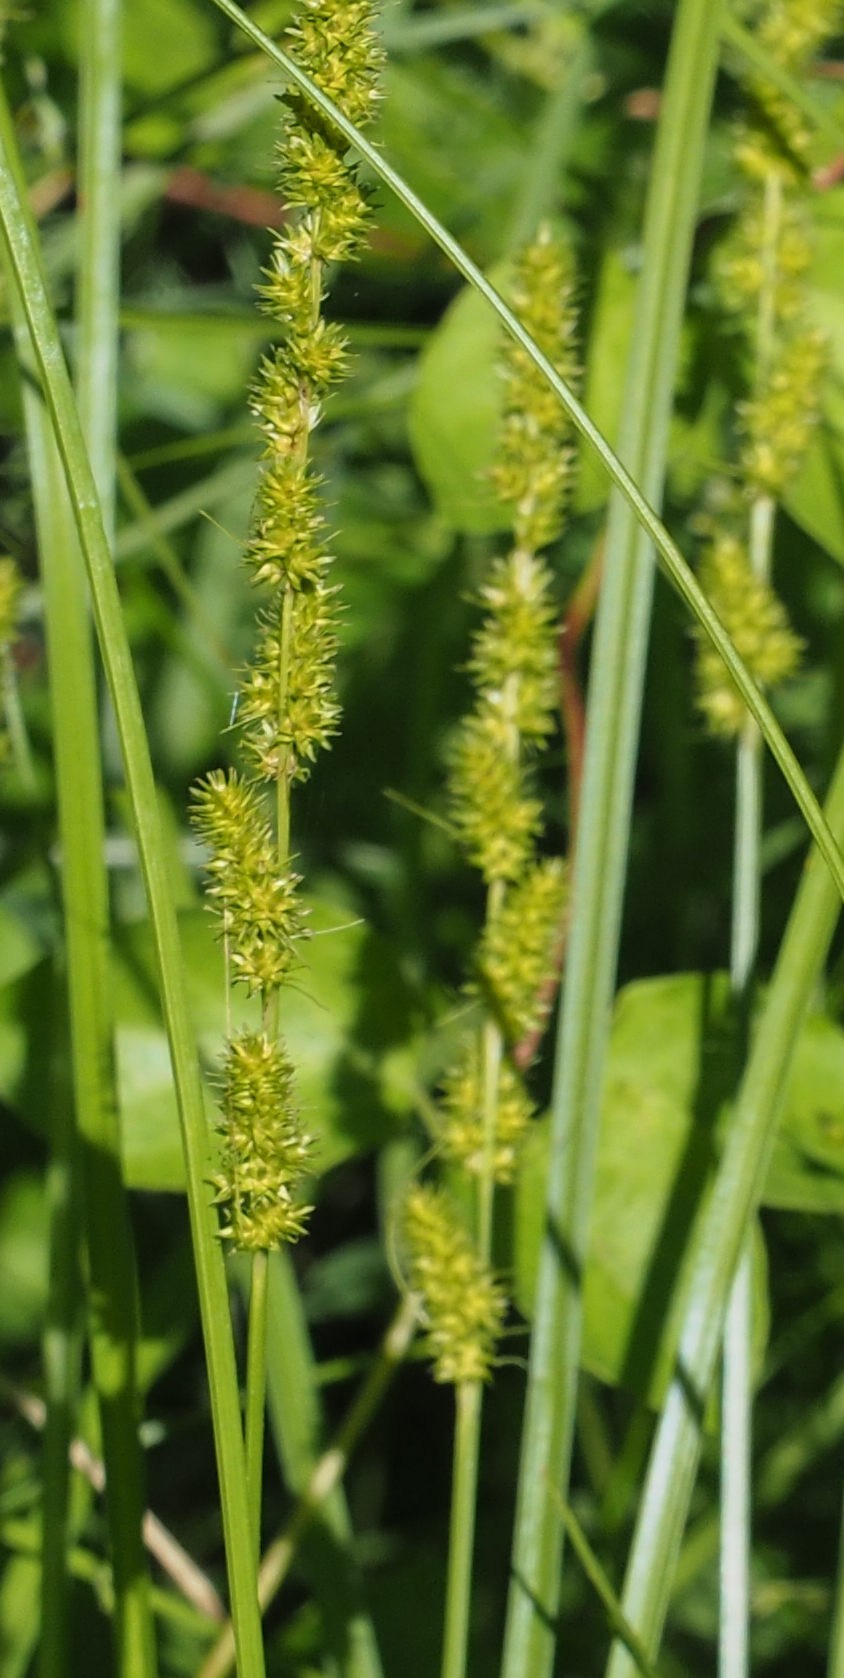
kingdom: Plantae
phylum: Tracheophyta
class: Liliopsida
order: Poales
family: Cyperaceae
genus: Carex
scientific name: Carex vulpinoidea
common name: American fox-sedge
